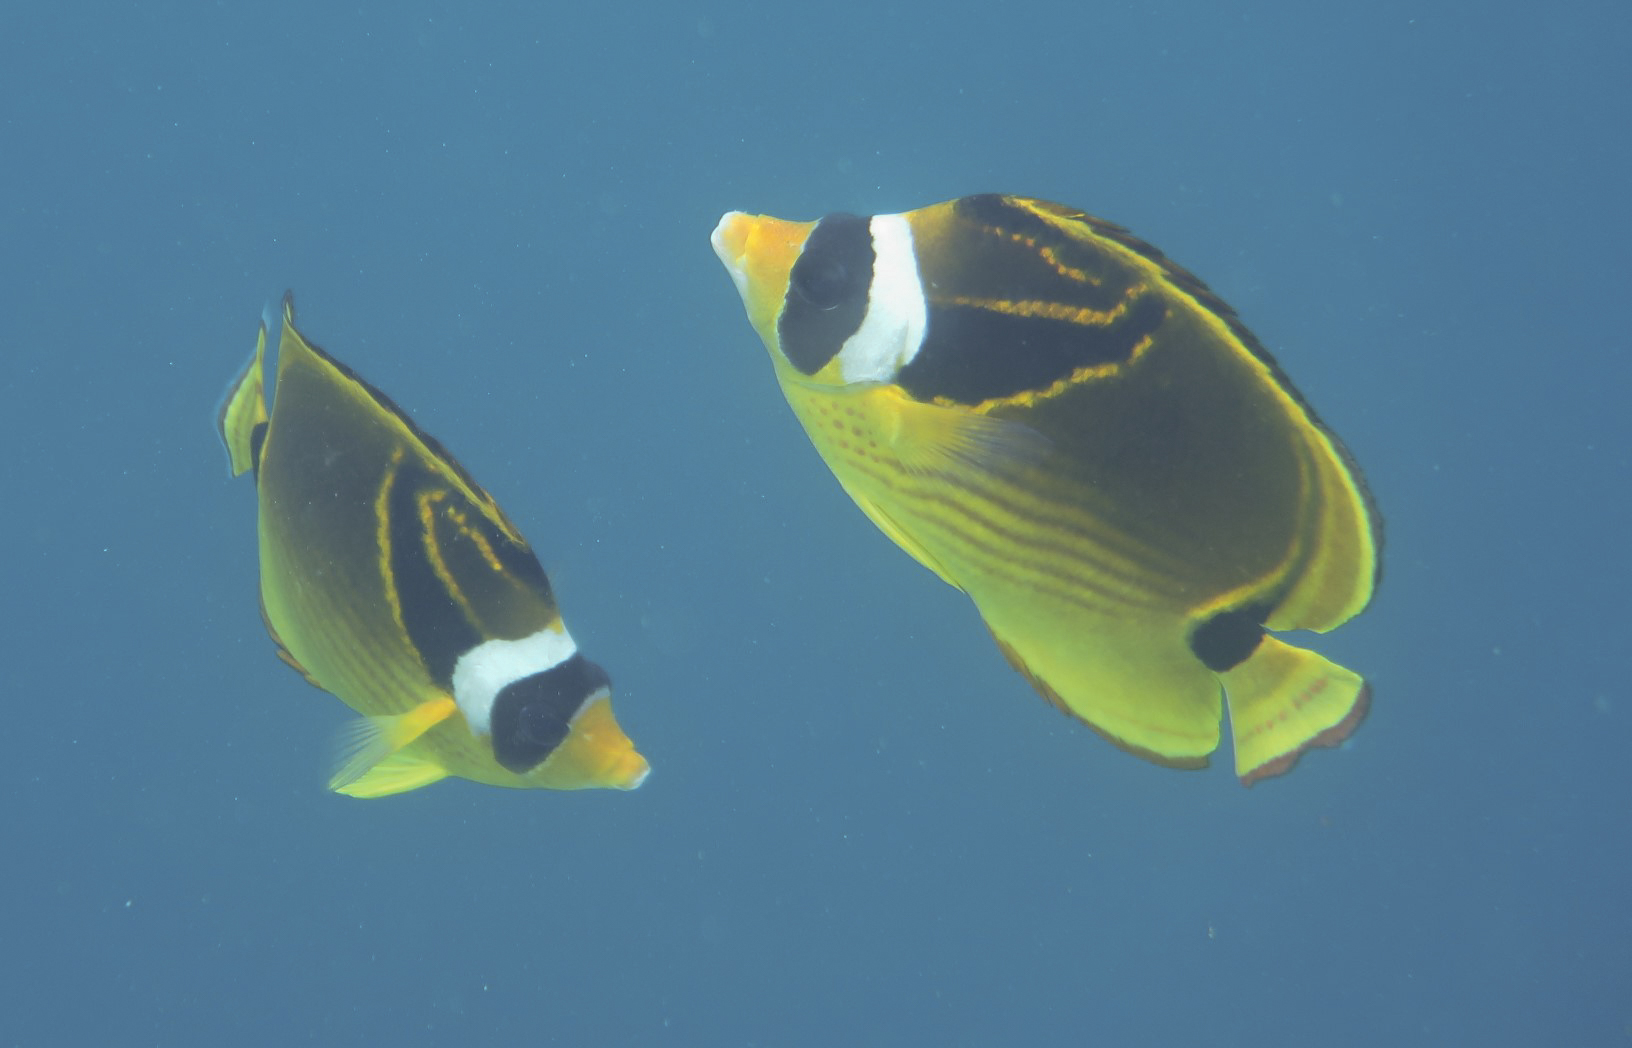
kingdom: Animalia
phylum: Chordata
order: Perciformes
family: Chaetodontidae
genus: Chaetodon
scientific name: Chaetodon lunula
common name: Raccoon butterflyfish
